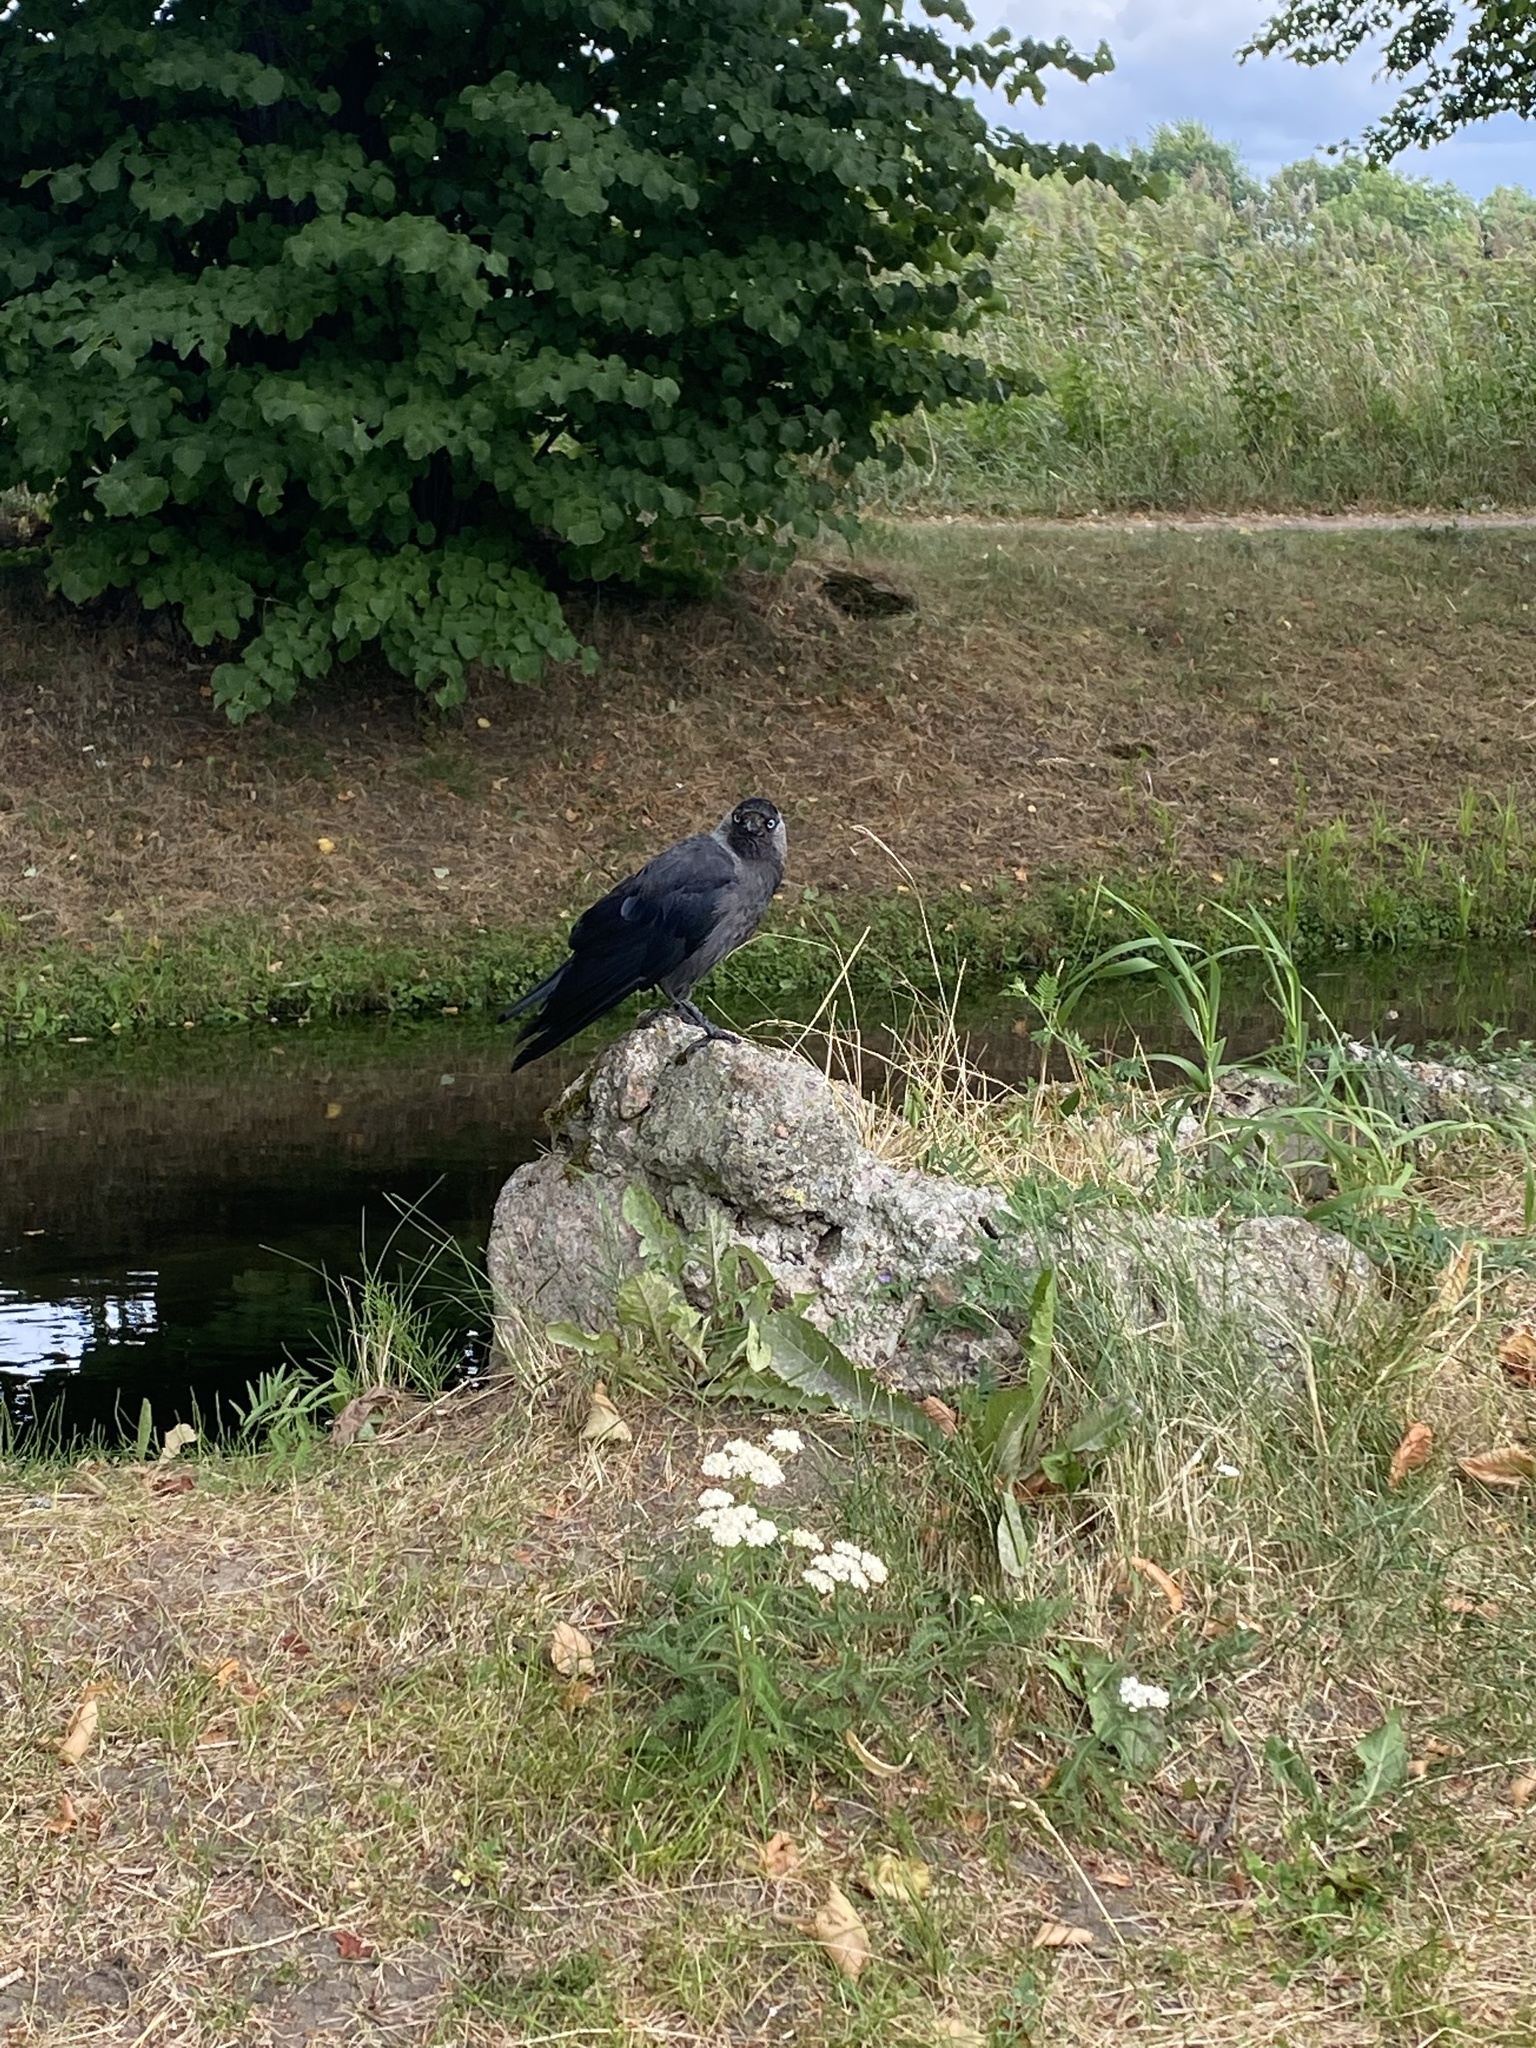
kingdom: Animalia
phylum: Chordata
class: Aves
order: Passeriformes
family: Corvidae
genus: Coloeus
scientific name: Coloeus monedula
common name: Western jackdaw
